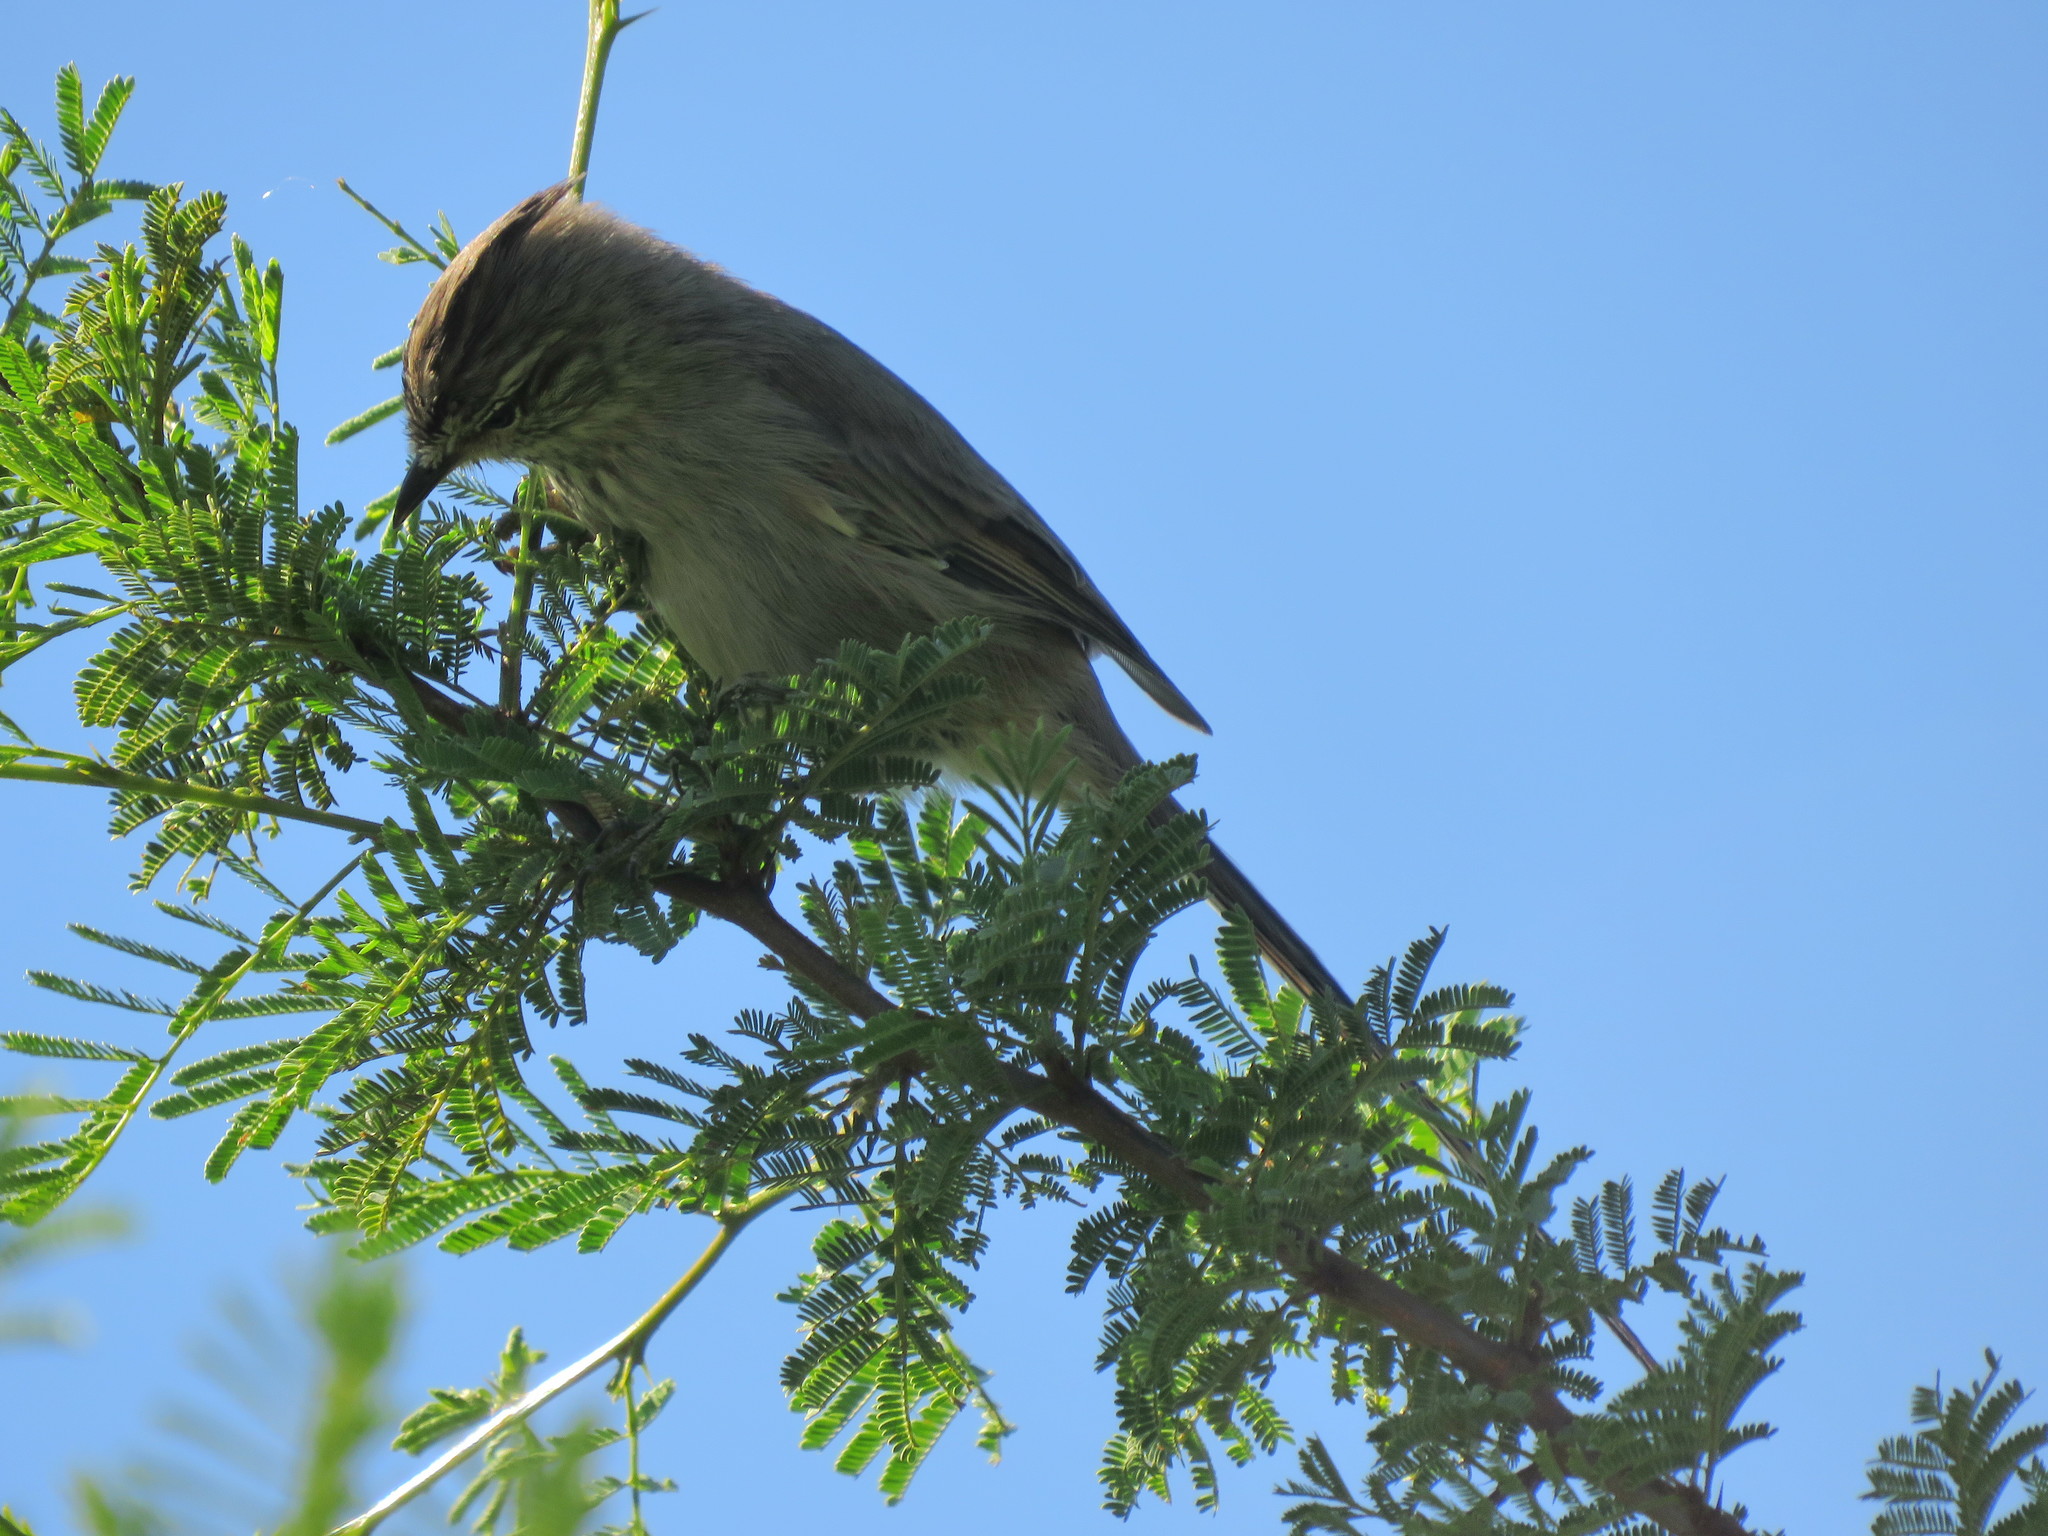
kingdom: Animalia
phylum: Chordata
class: Aves
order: Passeriformes
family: Furnariidae
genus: Leptasthenura
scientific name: Leptasthenura platensis
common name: Tufted tit-spinetail
